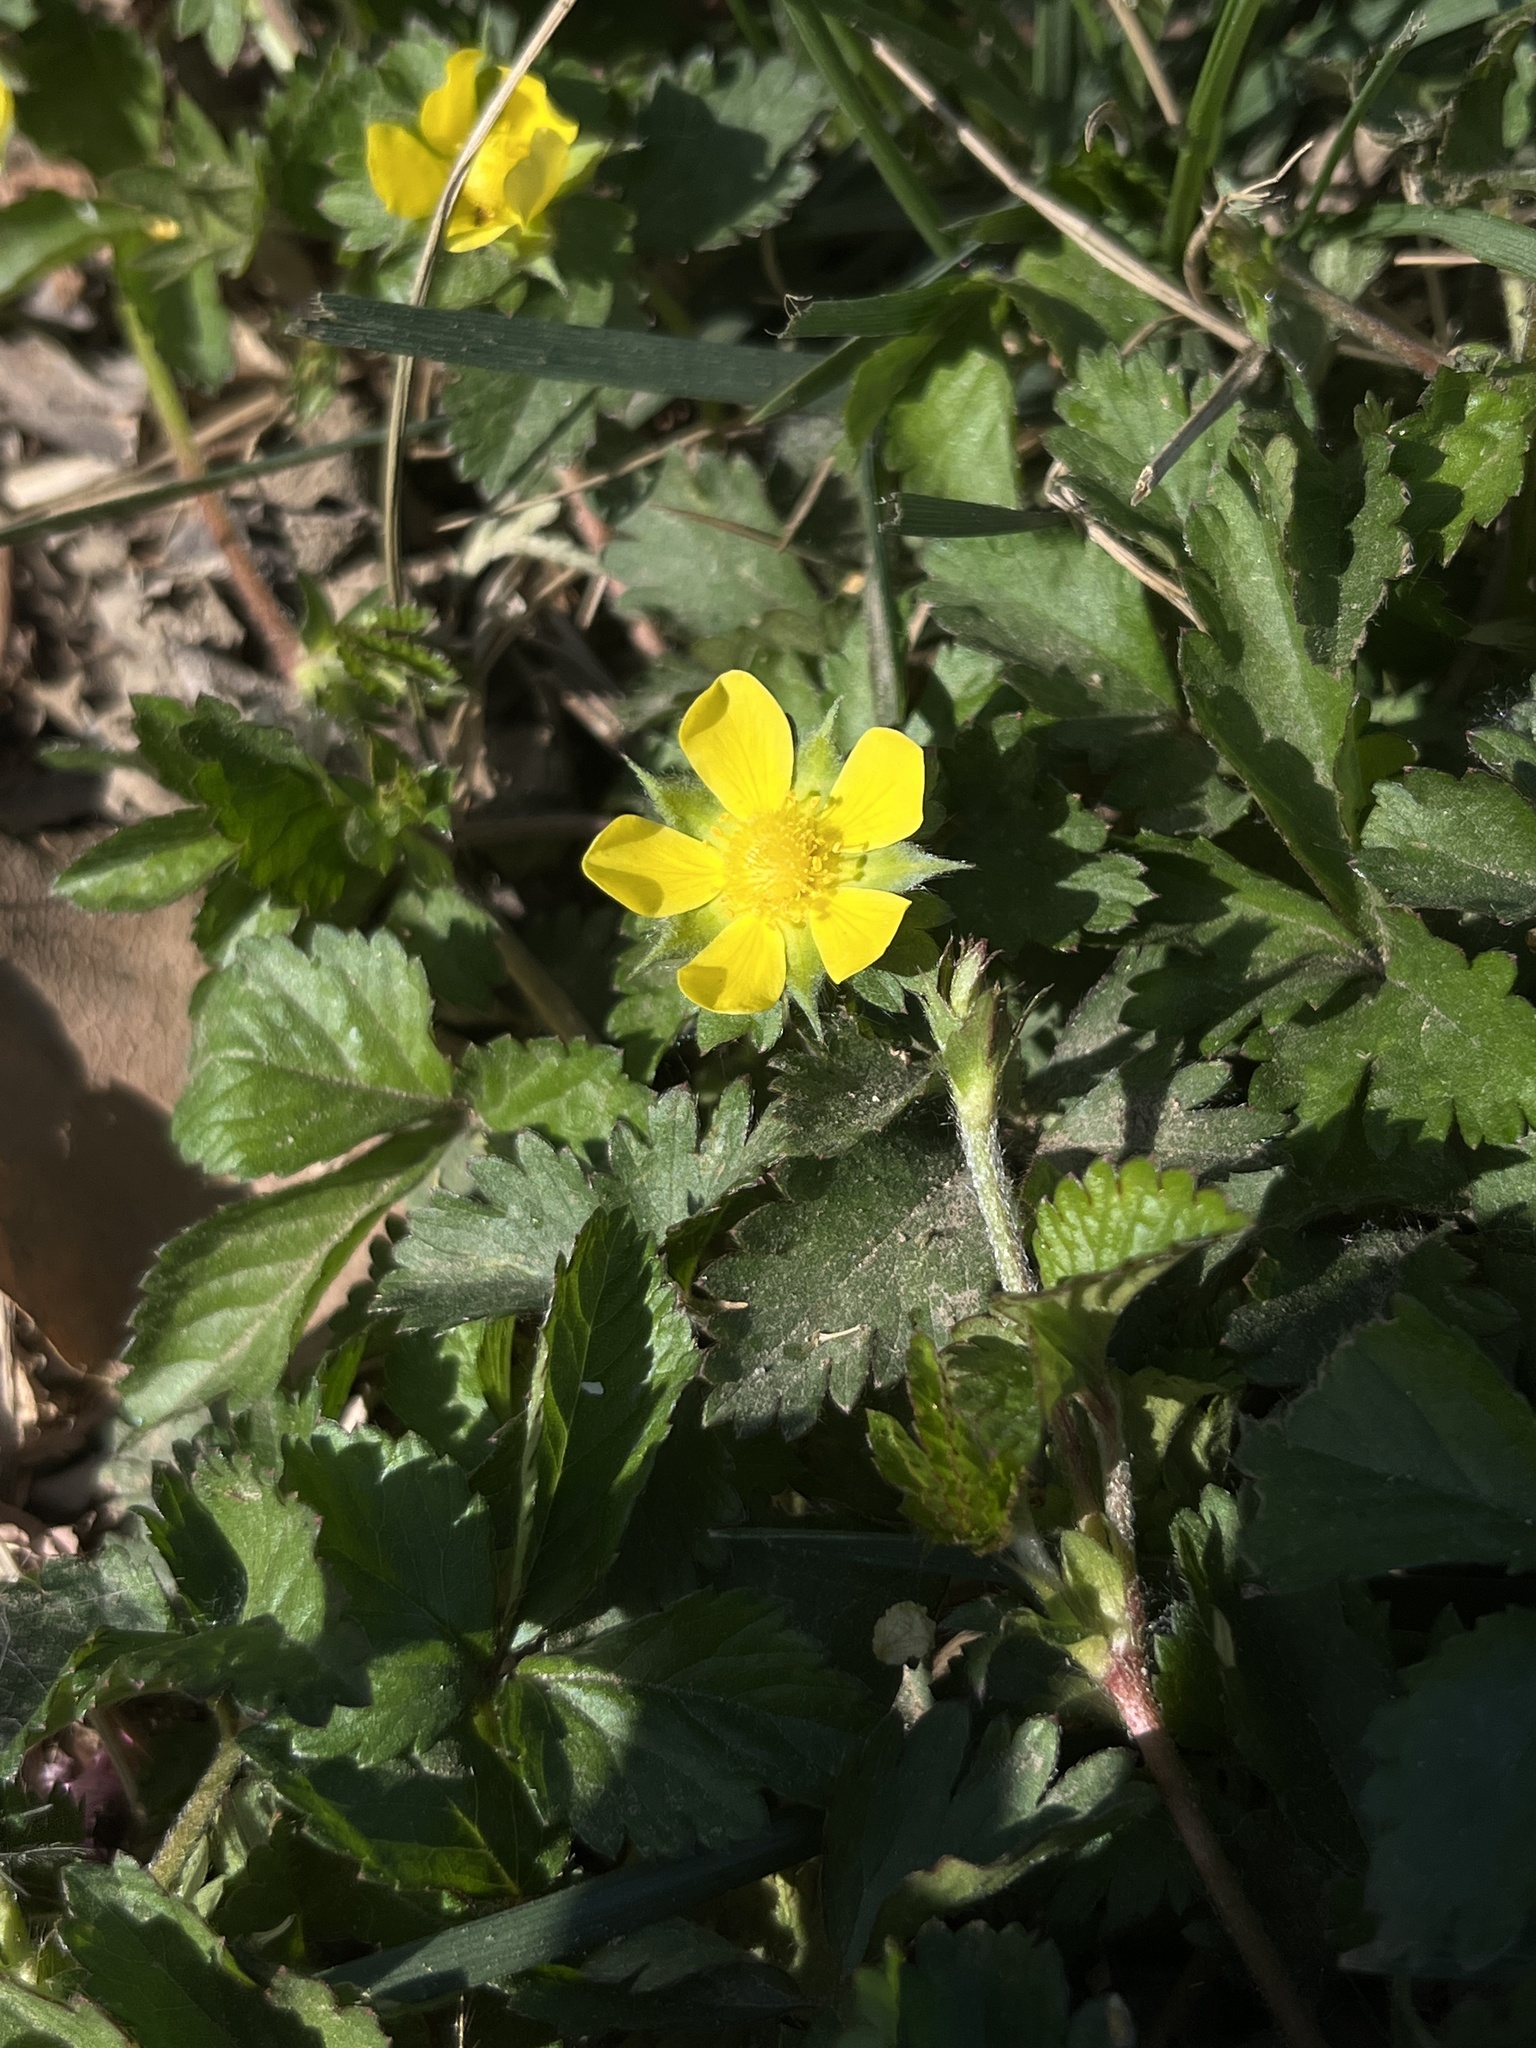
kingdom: Plantae
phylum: Tracheophyta
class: Magnoliopsida
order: Rosales
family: Rosaceae
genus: Potentilla
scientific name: Potentilla fragarioides
